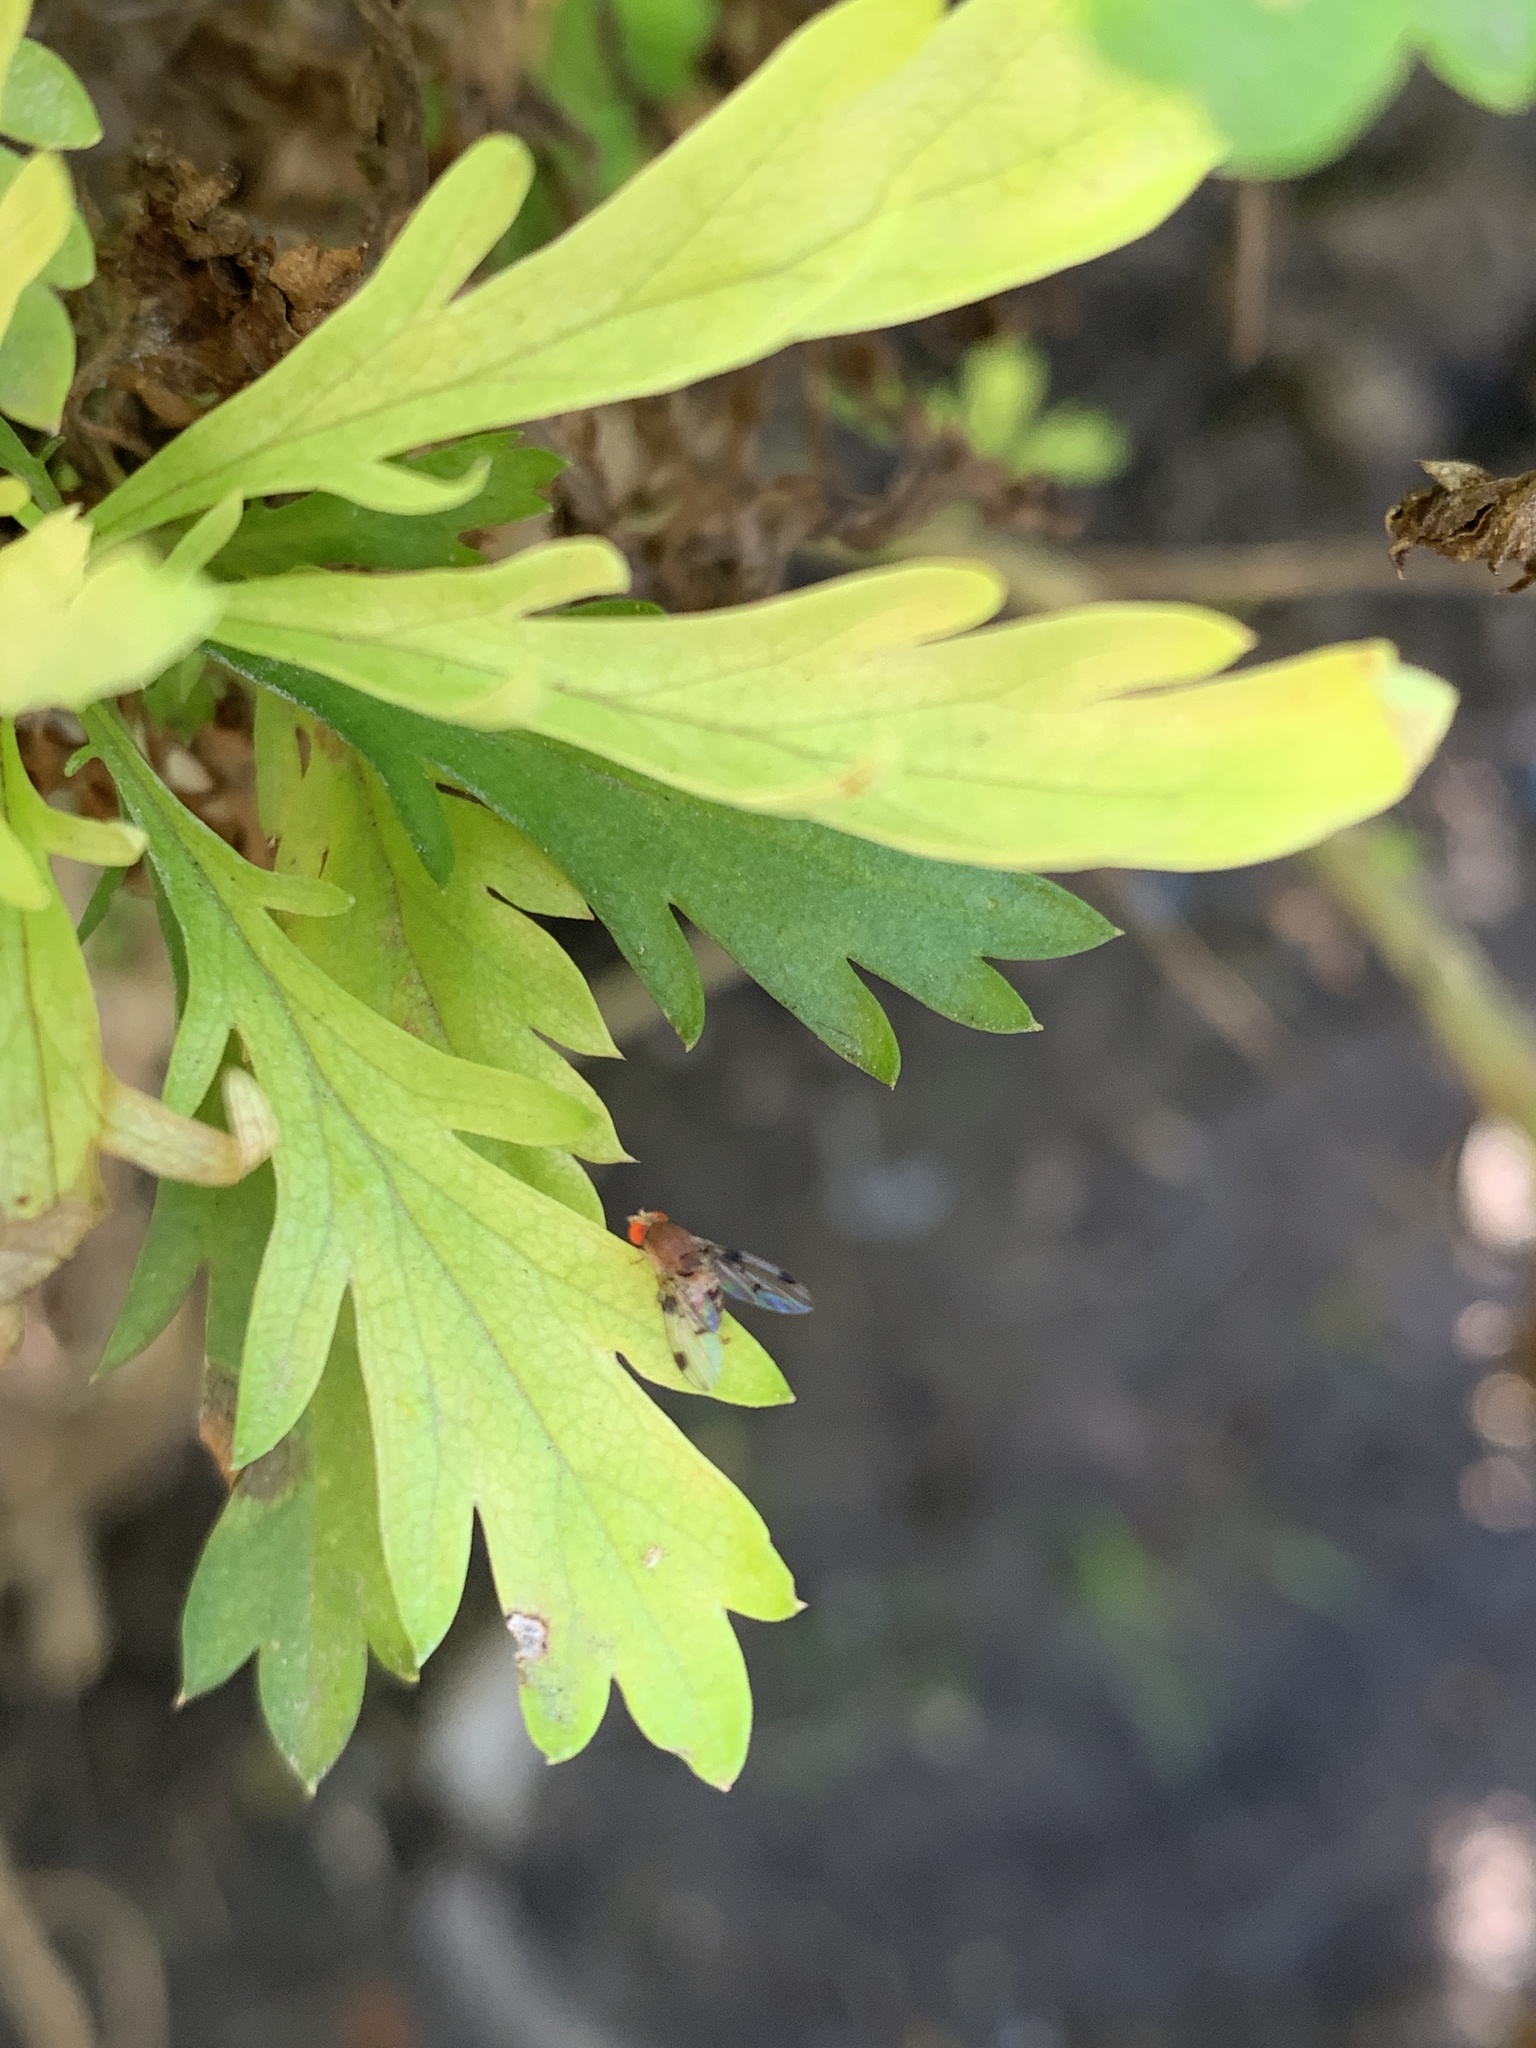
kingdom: Animalia
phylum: Arthropoda
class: Insecta
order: Diptera
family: Drosophilidae
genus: Leucophenga
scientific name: Leucophenga maculosa
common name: Pomace fly
